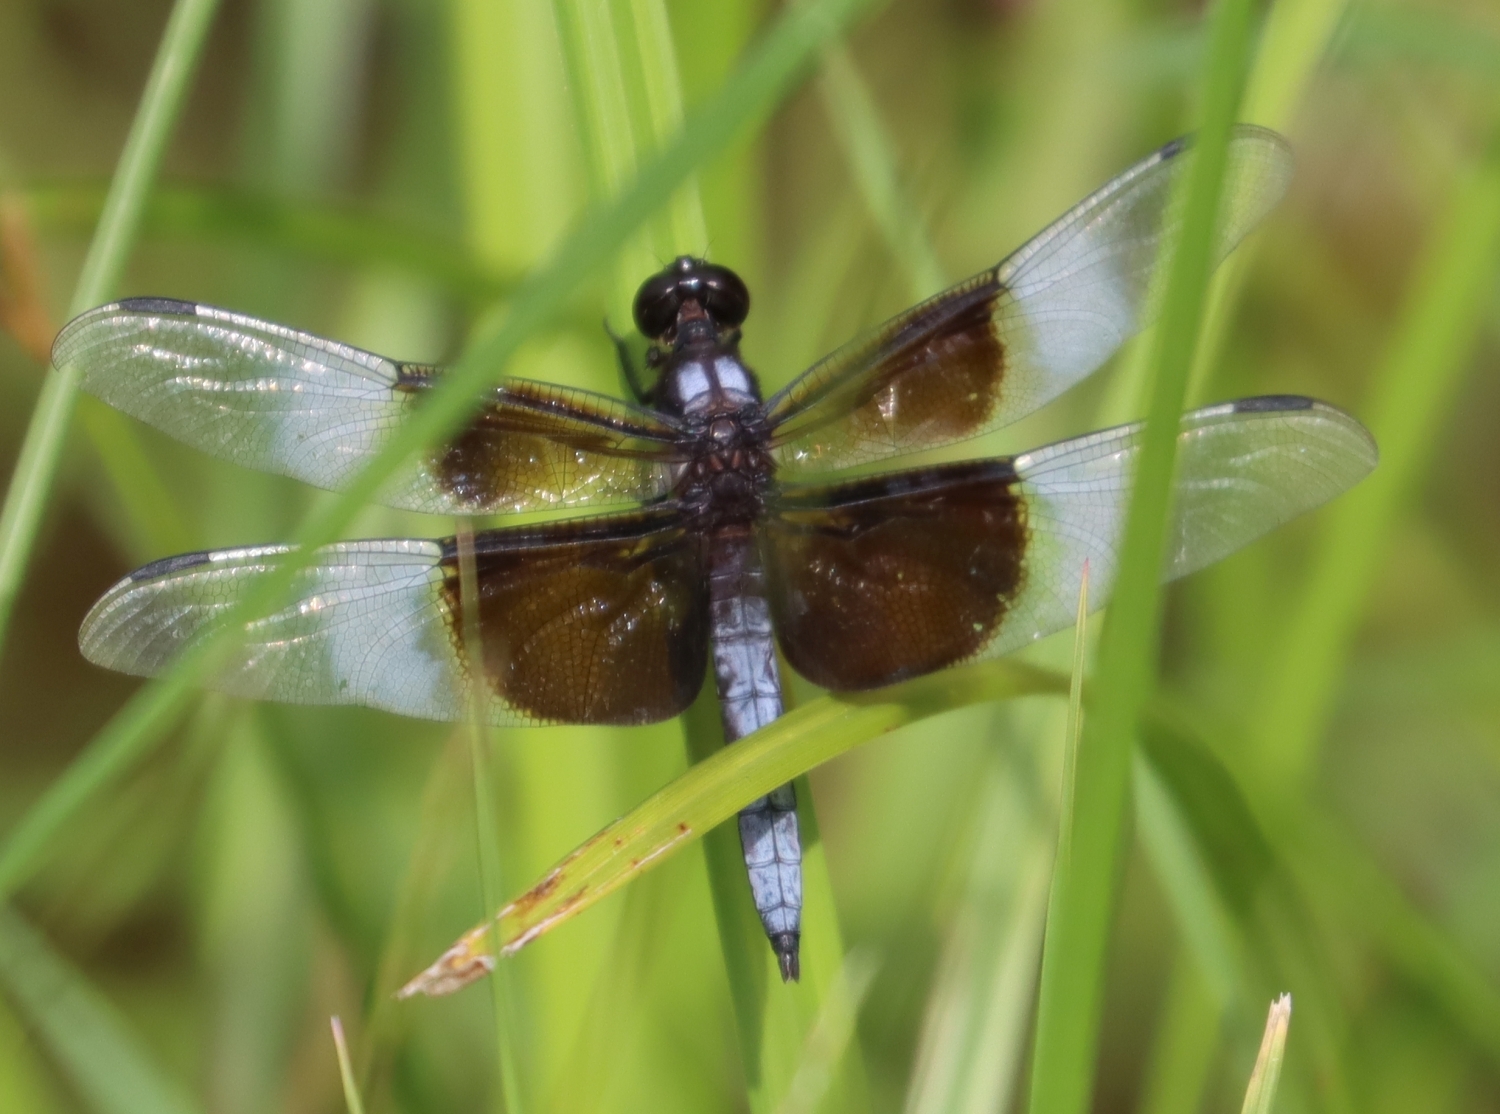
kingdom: Animalia
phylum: Arthropoda
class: Insecta
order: Odonata
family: Libellulidae
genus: Libellula
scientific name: Libellula luctuosa
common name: Widow skimmer
